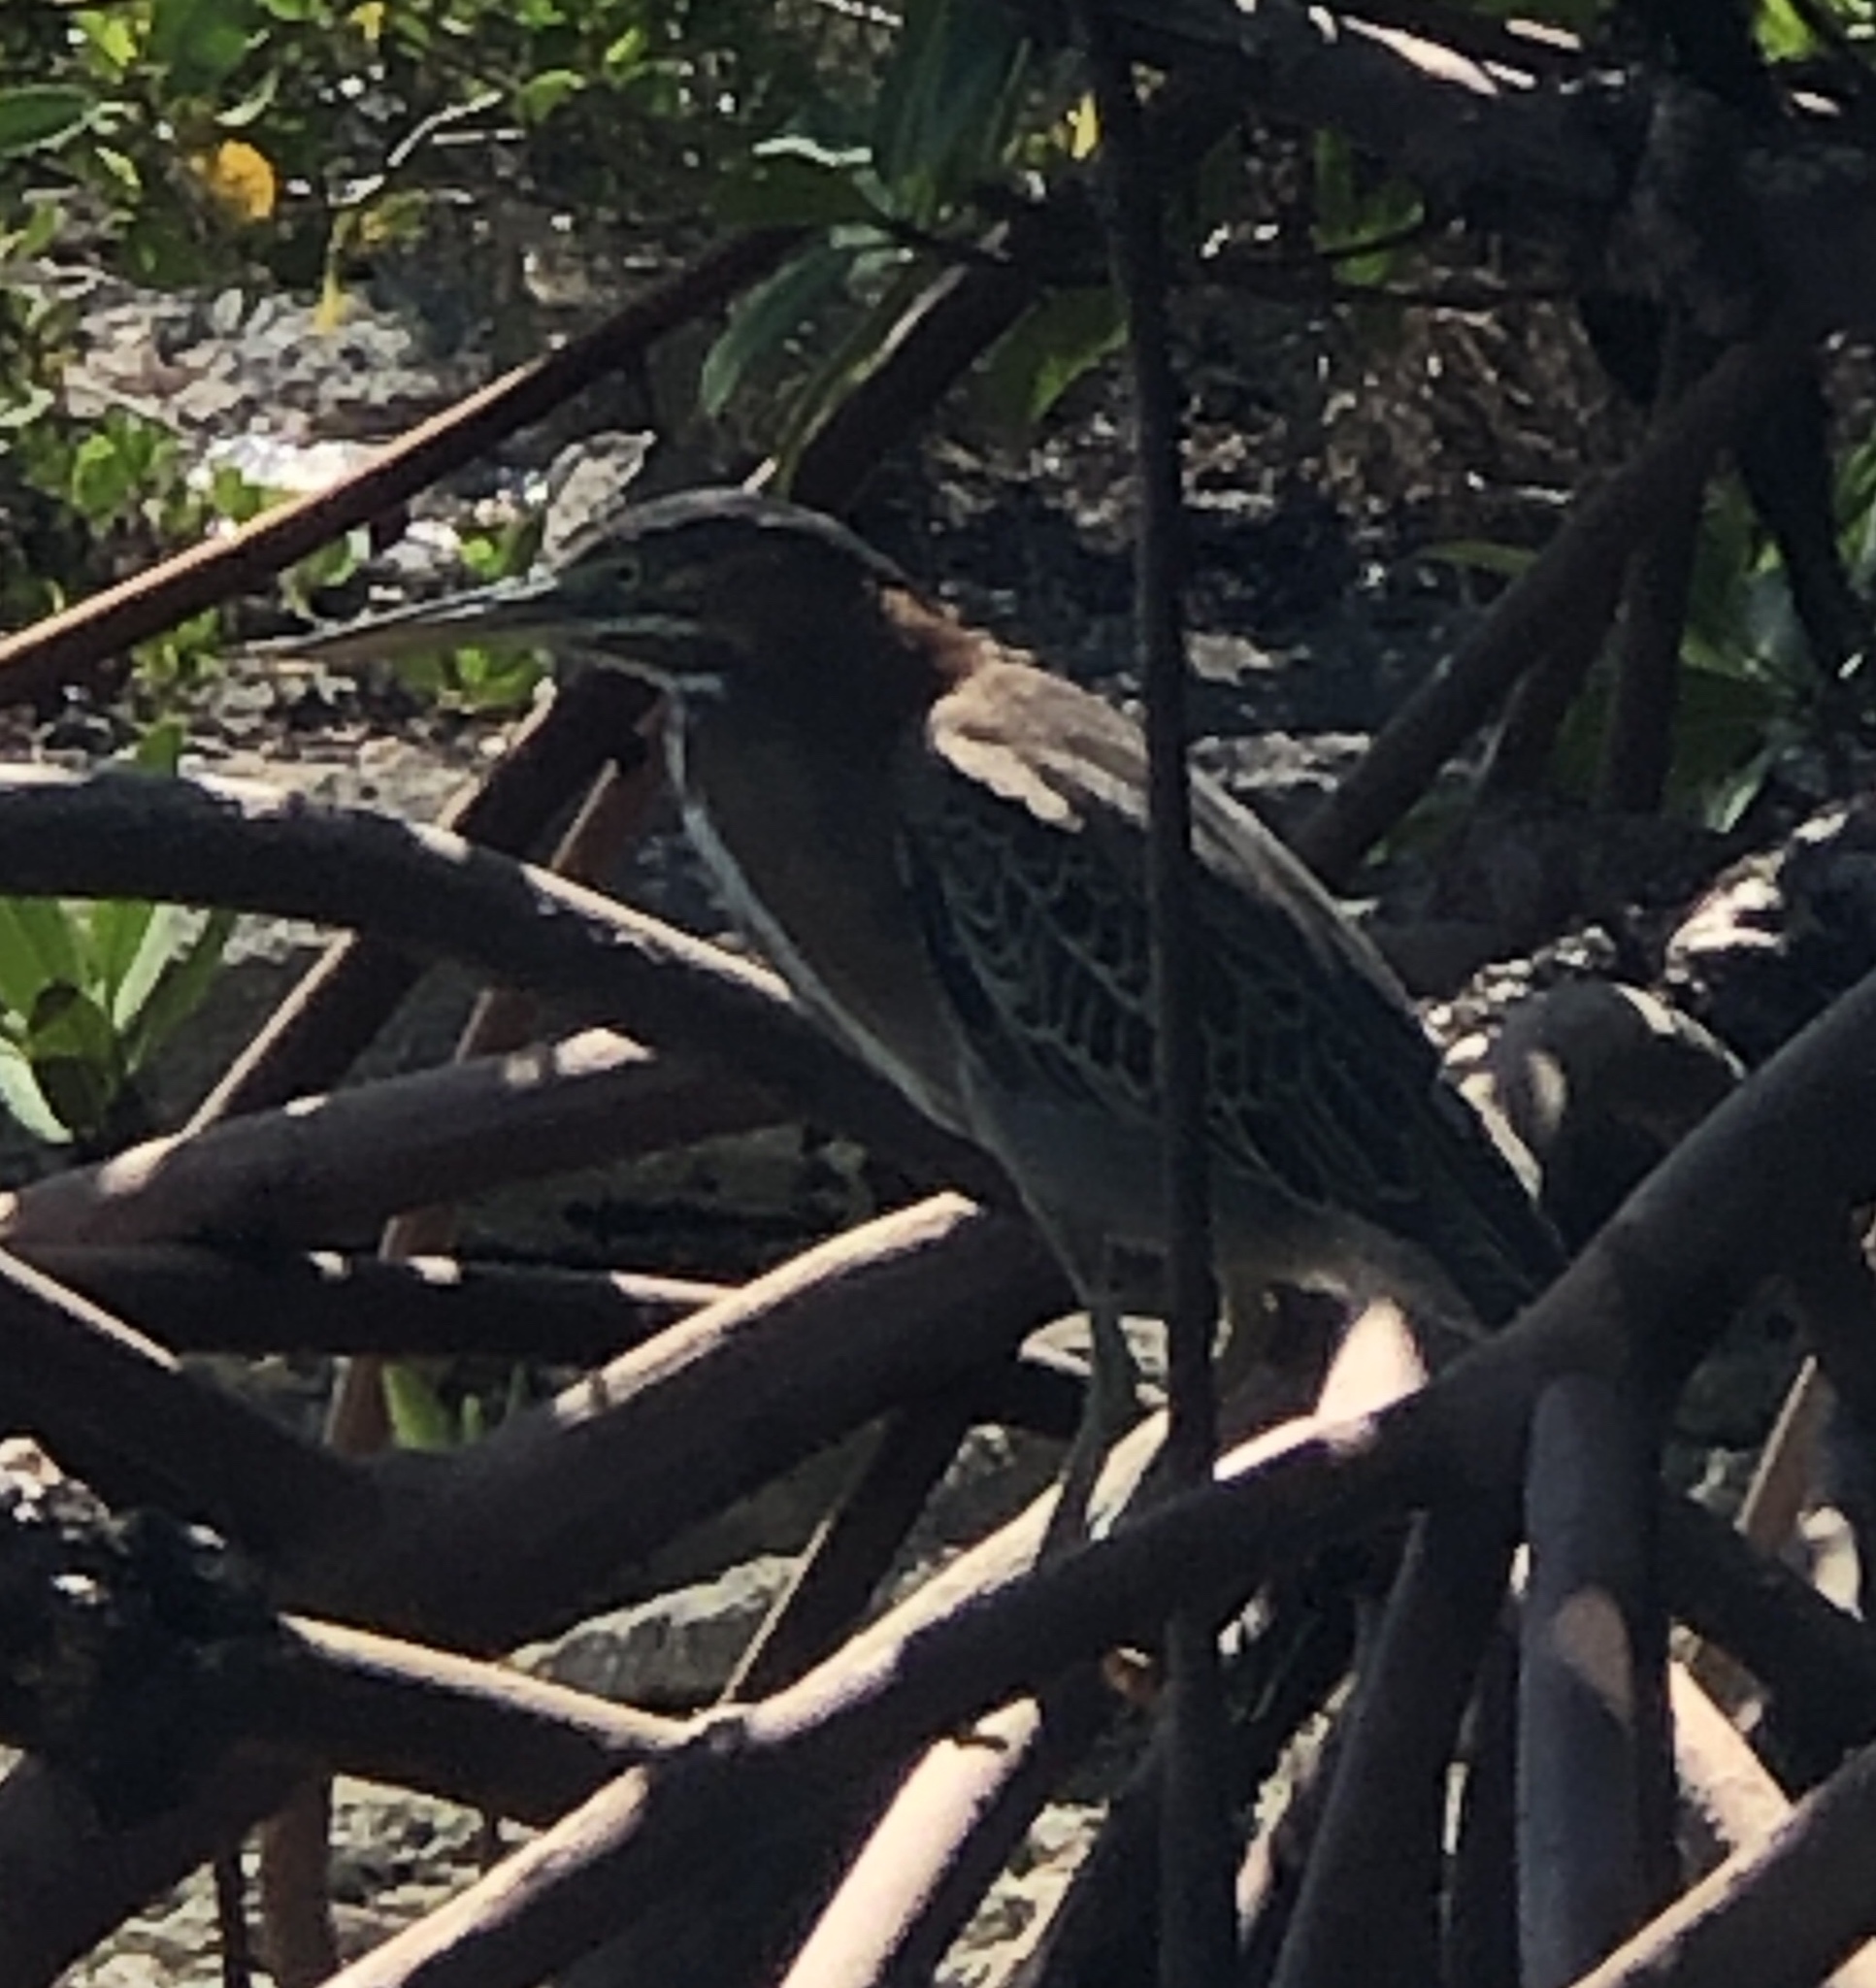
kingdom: Animalia
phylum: Chordata
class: Aves
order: Pelecaniformes
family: Ardeidae
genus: Butorides
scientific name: Butorides virescens
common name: Green heron
